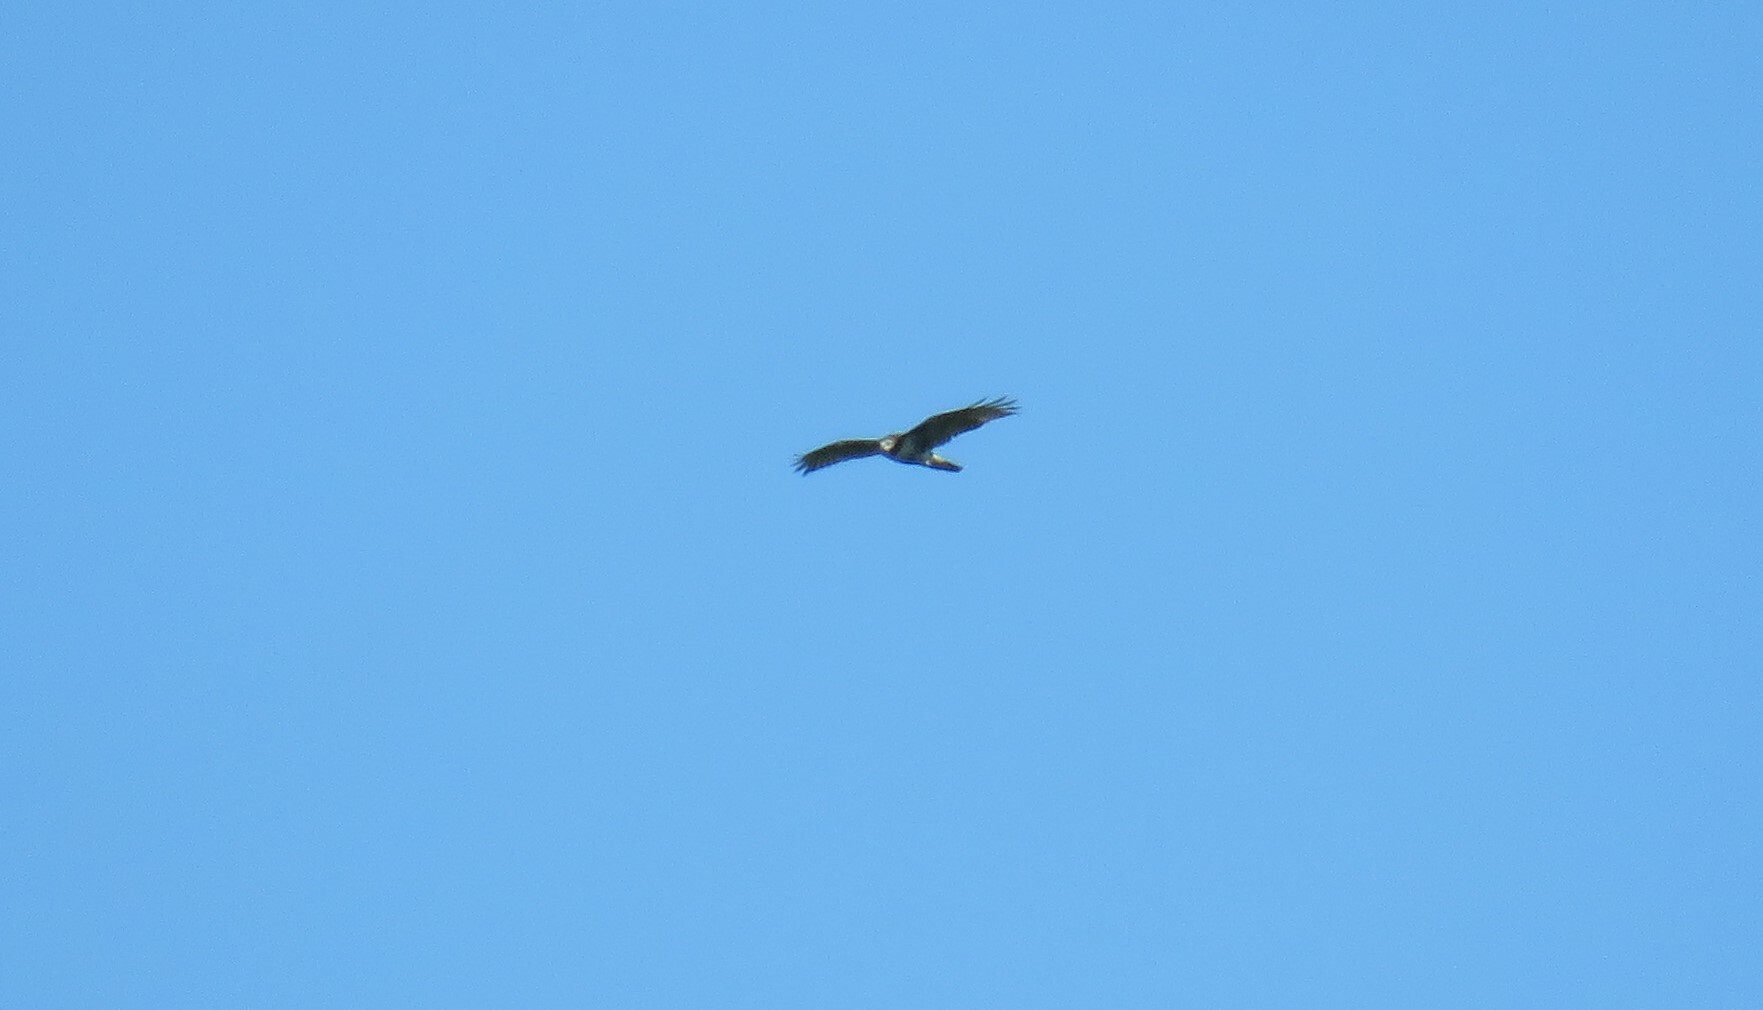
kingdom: Animalia
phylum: Chordata
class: Aves
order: Accipitriformes
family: Accipitridae
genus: Circus
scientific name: Circus cyaneus
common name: Hen harrier
